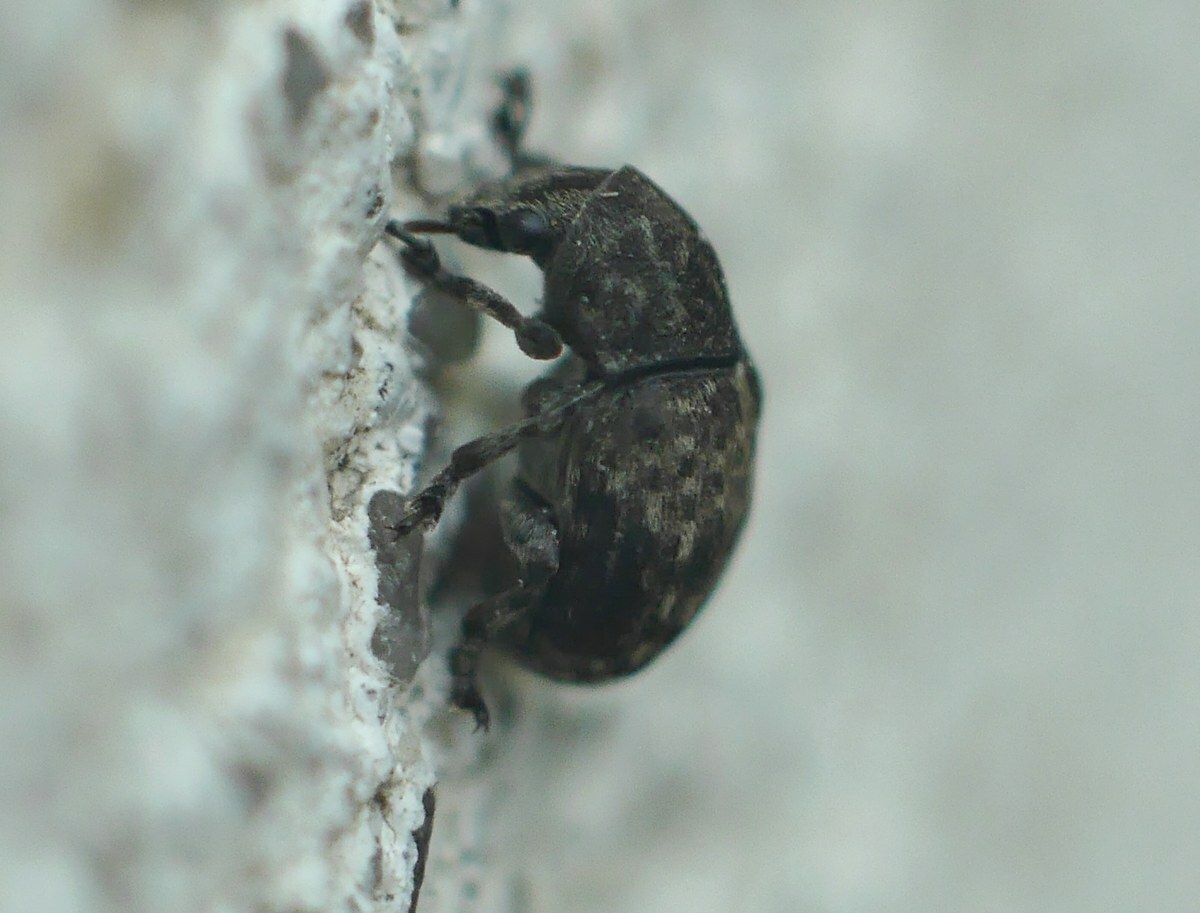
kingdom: Animalia
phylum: Arthropoda
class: Insecta
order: Coleoptera
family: Anthribidae
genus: Anthribus
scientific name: Anthribus nebulosus
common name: Fungus weevil
